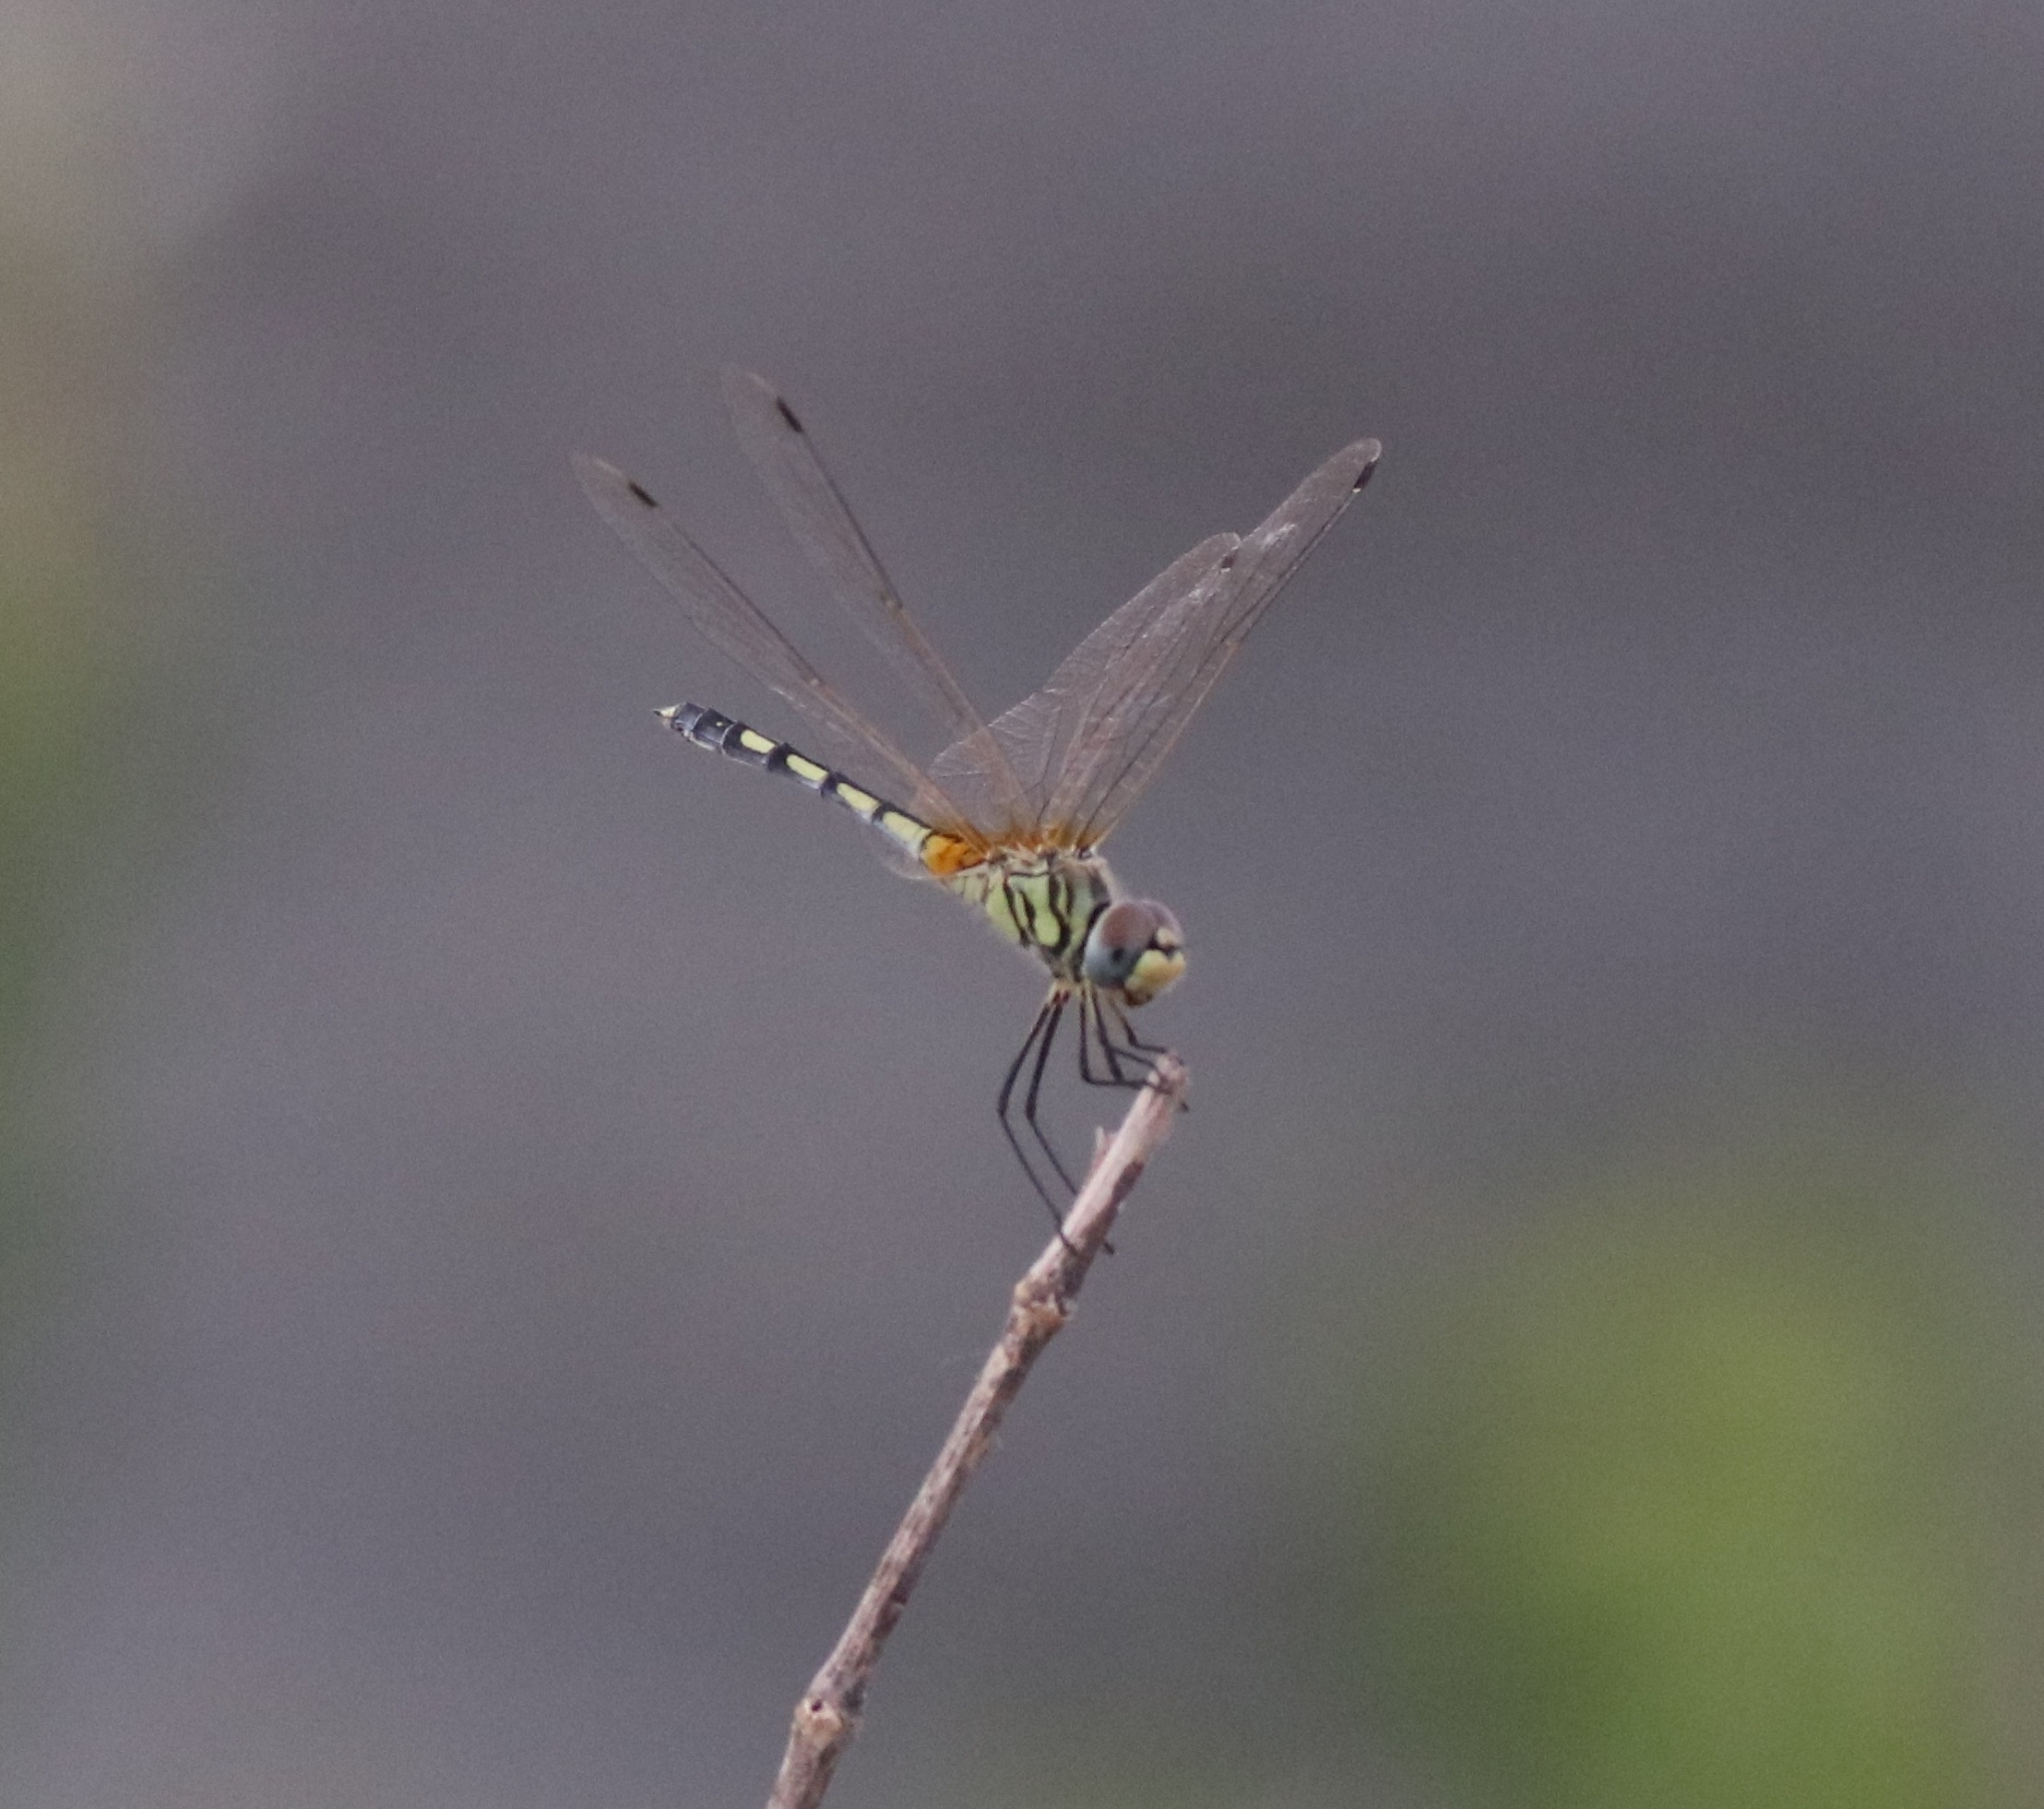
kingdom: Animalia
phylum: Arthropoda
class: Insecta
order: Odonata
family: Libellulidae
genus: Trithemis
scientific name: Trithemis pallidinervis
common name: Dancing dropwing
